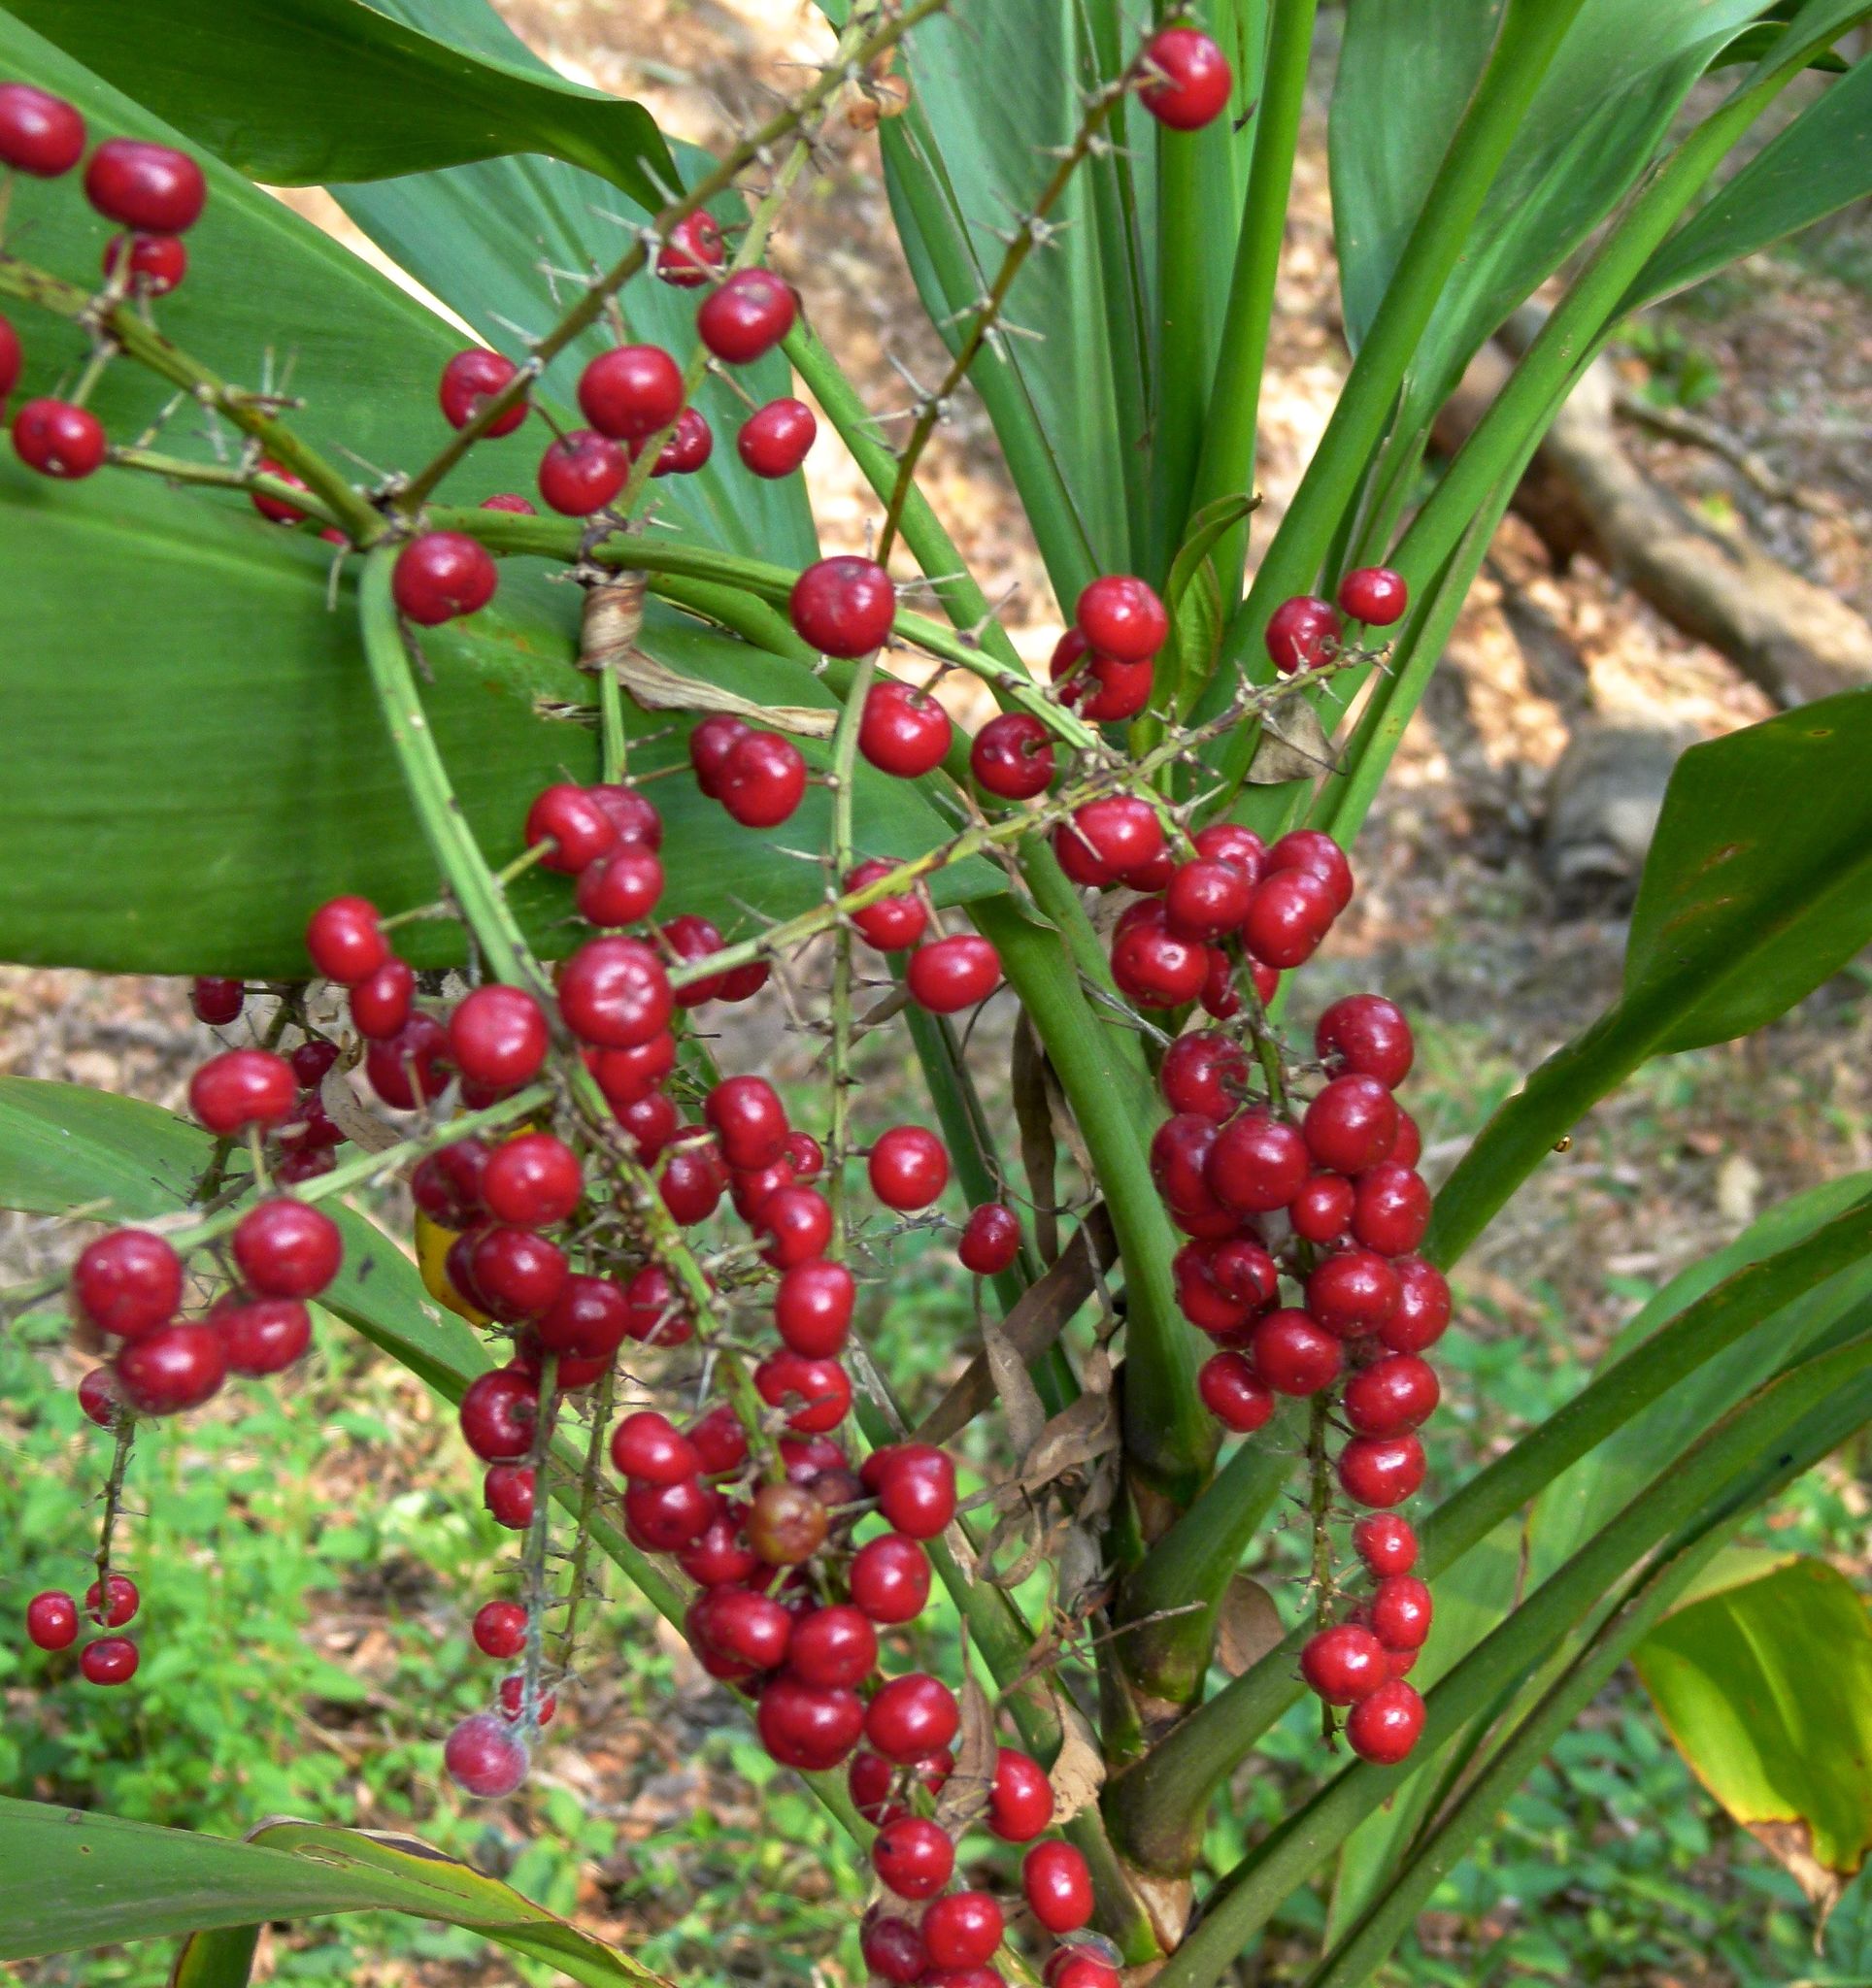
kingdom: Plantae
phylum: Tracheophyta
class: Liliopsida
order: Asparagales
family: Asparagaceae
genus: Cordyline
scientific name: Cordyline manners-suttoniae
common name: Giant palm-lily
